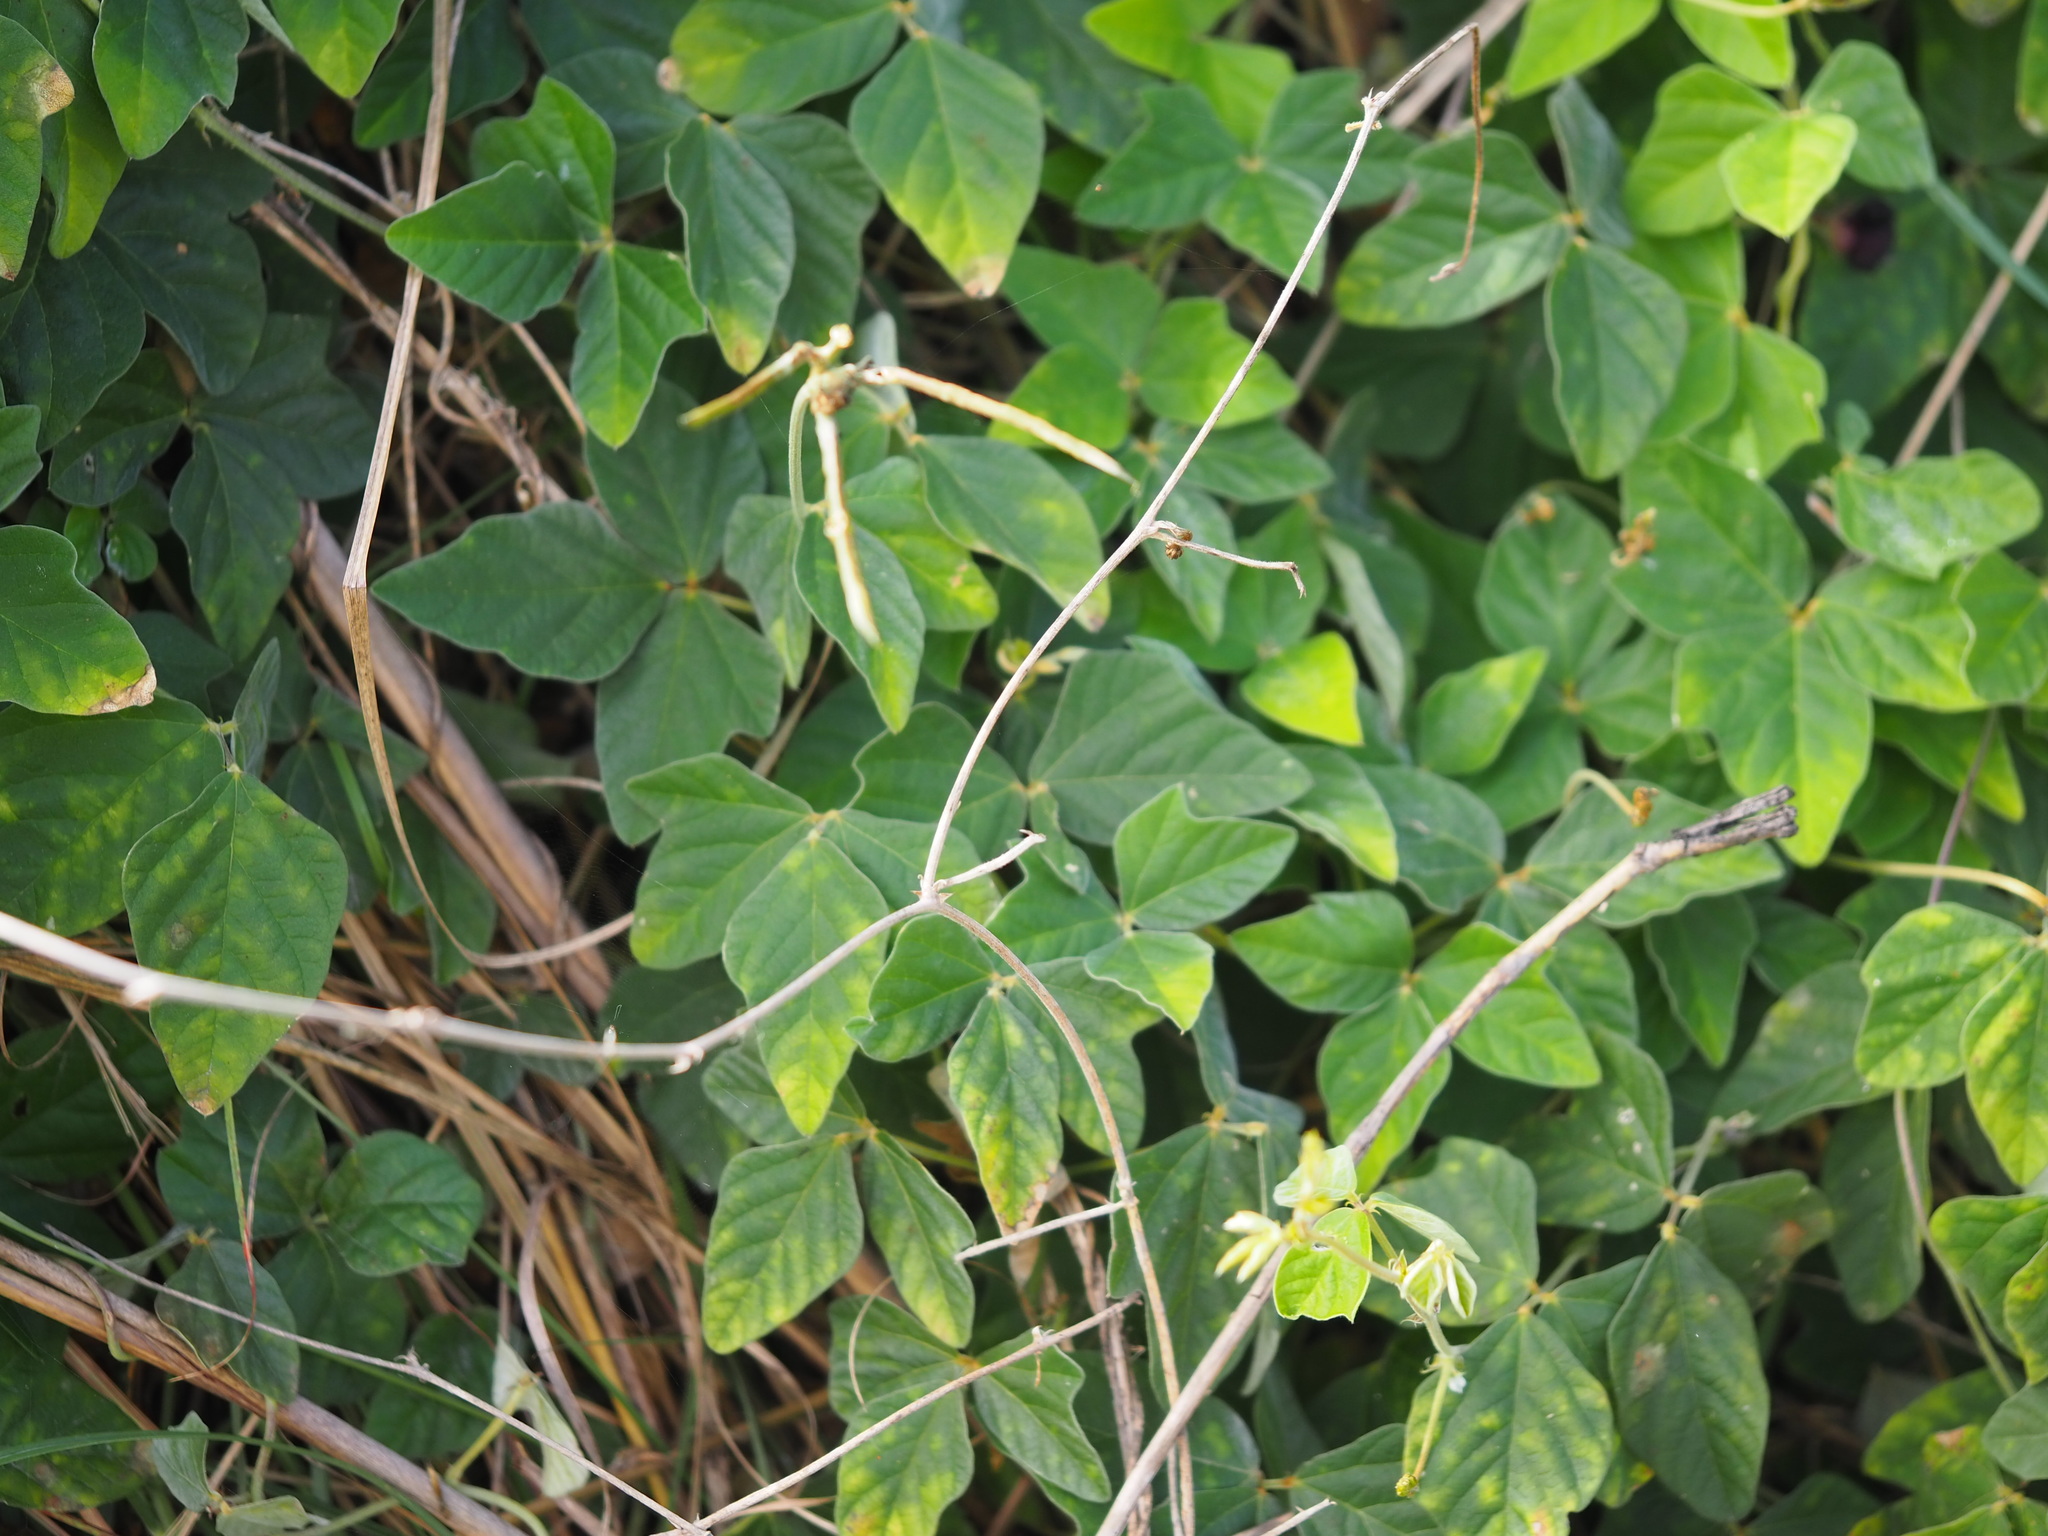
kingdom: Plantae
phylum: Tracheophyta
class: Magnoliopsida
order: Fabales
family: Fabaceae
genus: Macroptilium
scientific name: Macroptilium atropurpureum
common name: Purple bushbean
